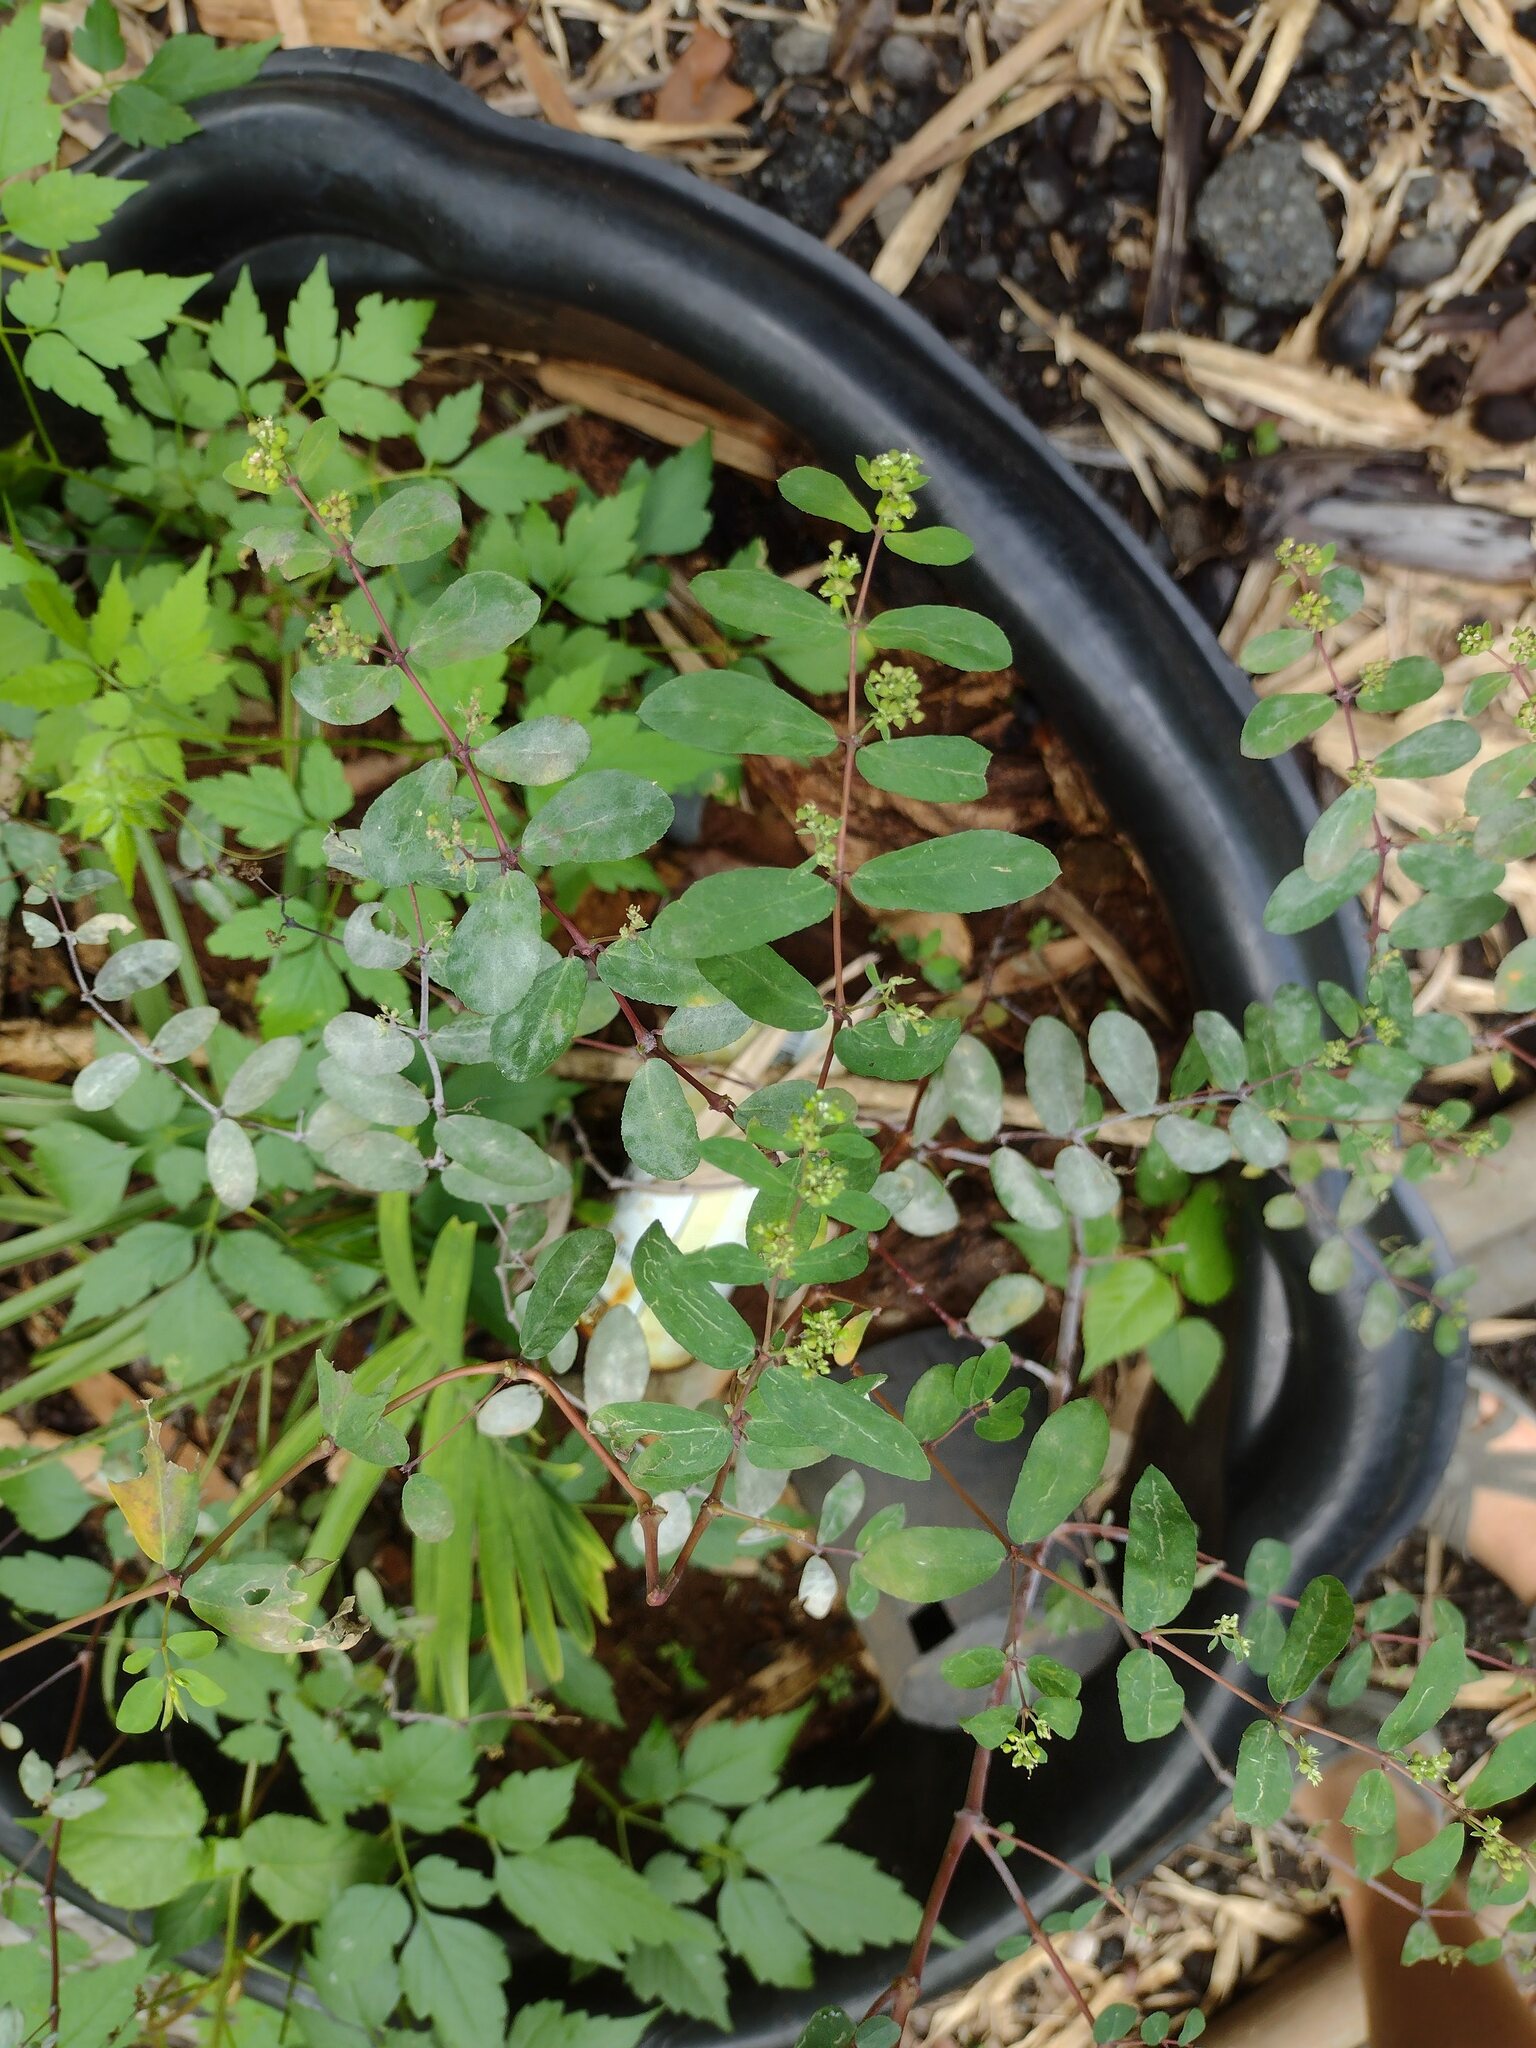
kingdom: Plantae
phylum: Tracheophyta
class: Magnoliopsida
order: Malpighiales
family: Euphorbiaceae
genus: Euphorbia
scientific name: Euphorbia hypericifolia
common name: Graceful sandmat
